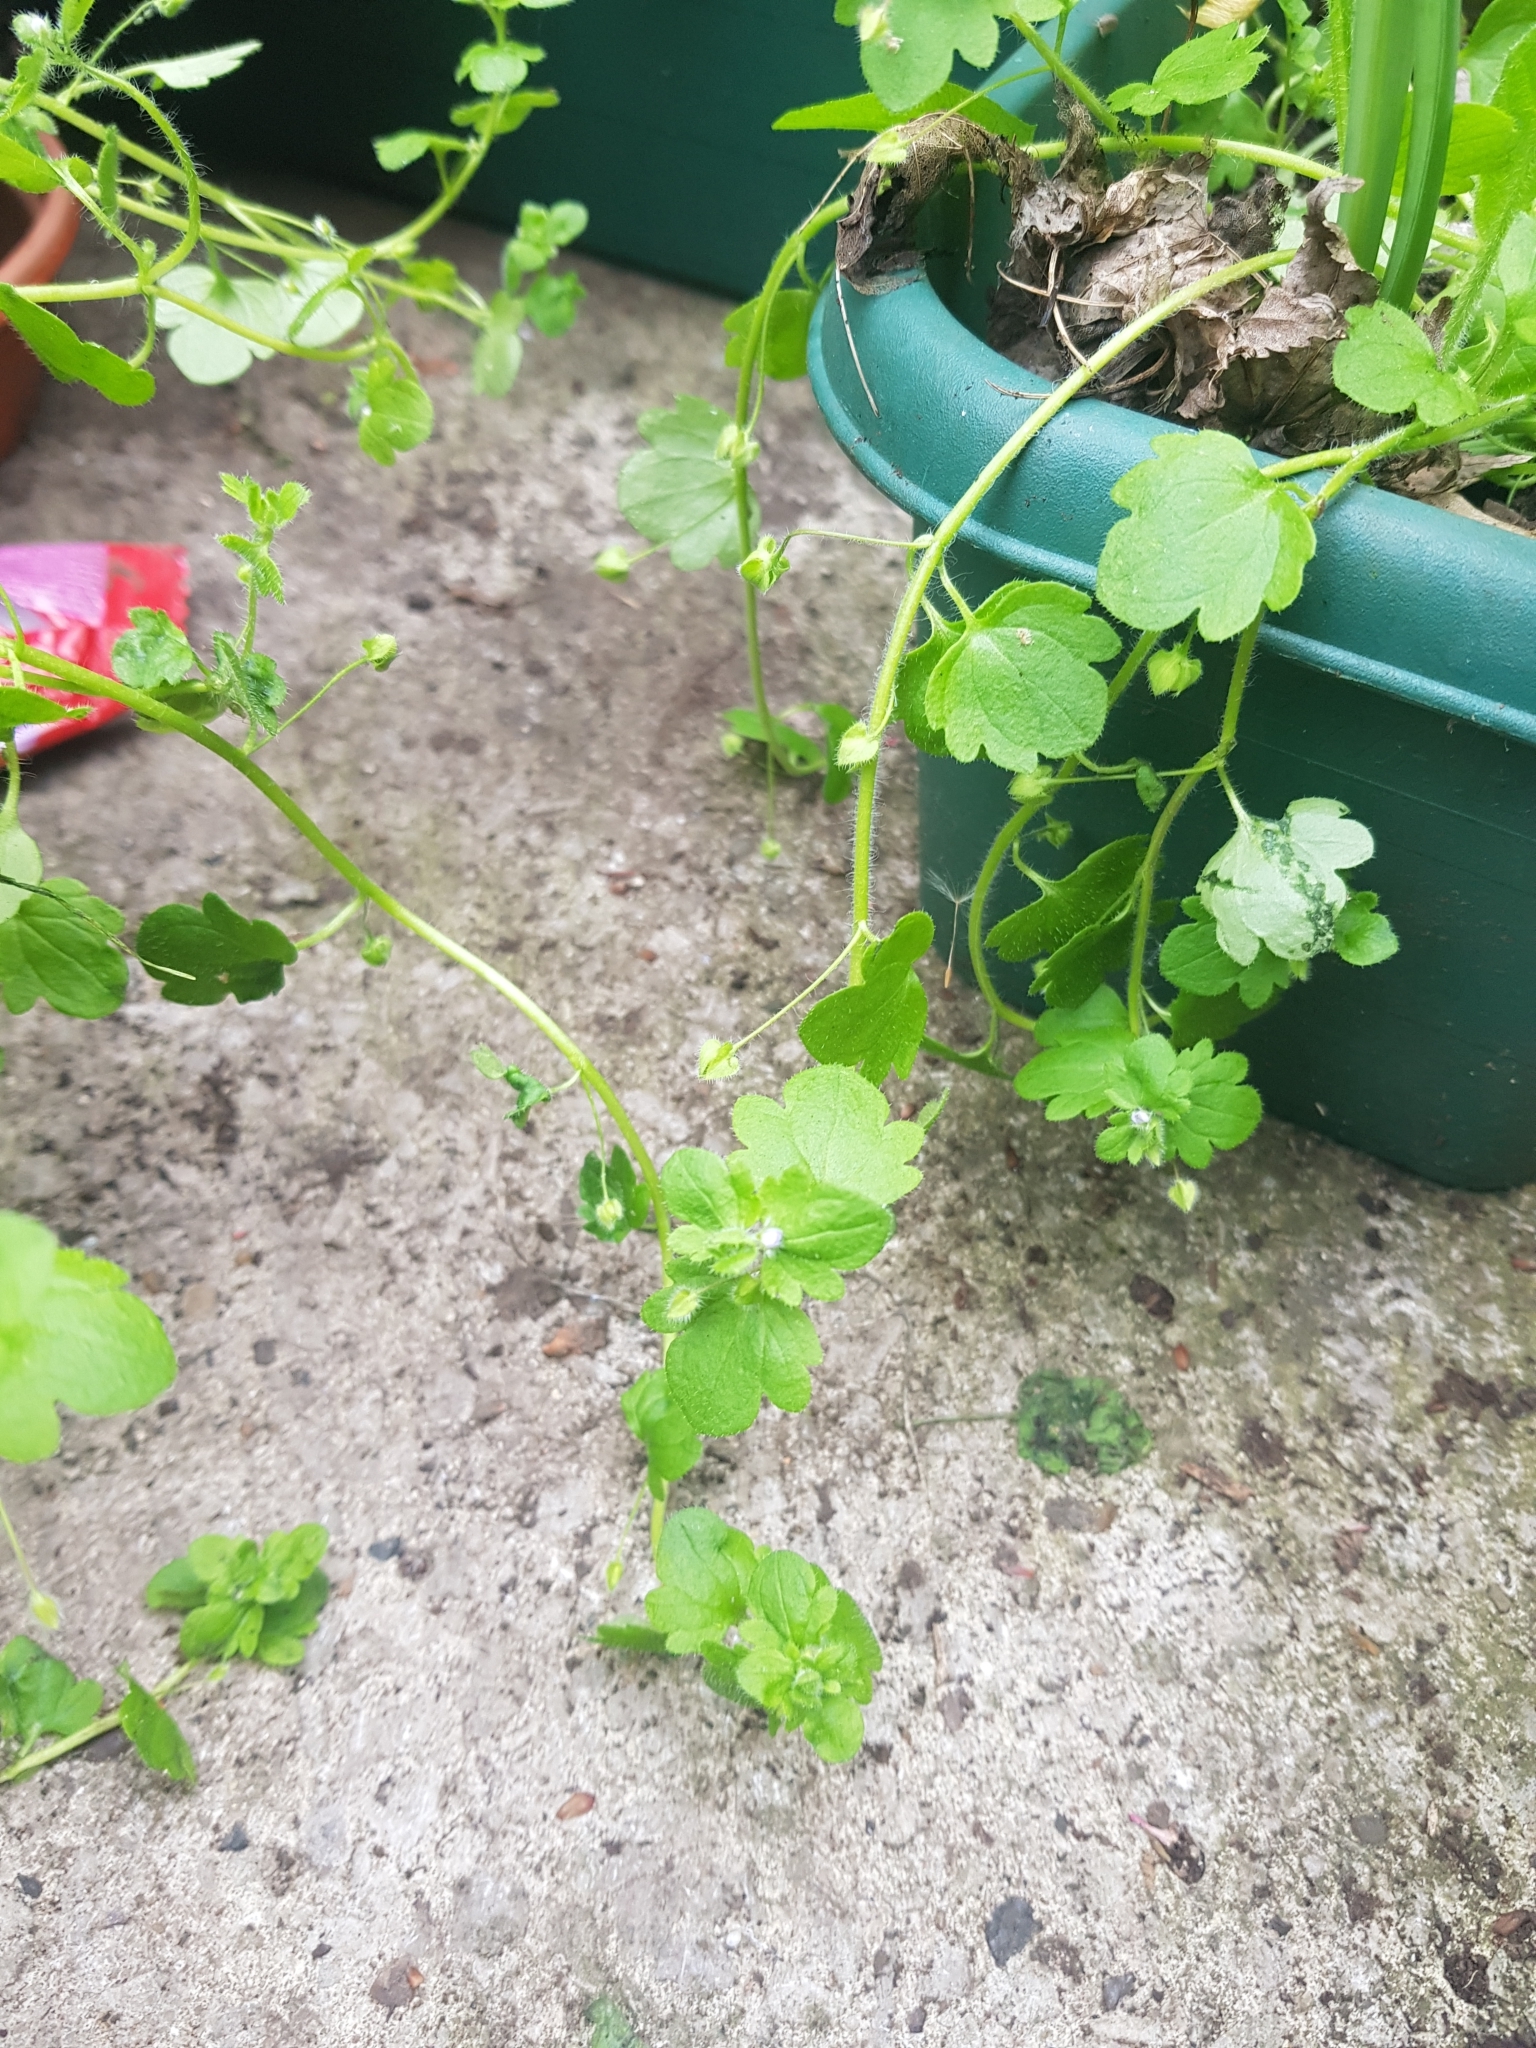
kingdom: Plantae
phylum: Tracheophyta
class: Magnoliopsida
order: Lamiales
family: Plantaginaceae
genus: Veronica
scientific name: Veronica sublobata
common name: False ivy-leaved speedwell
